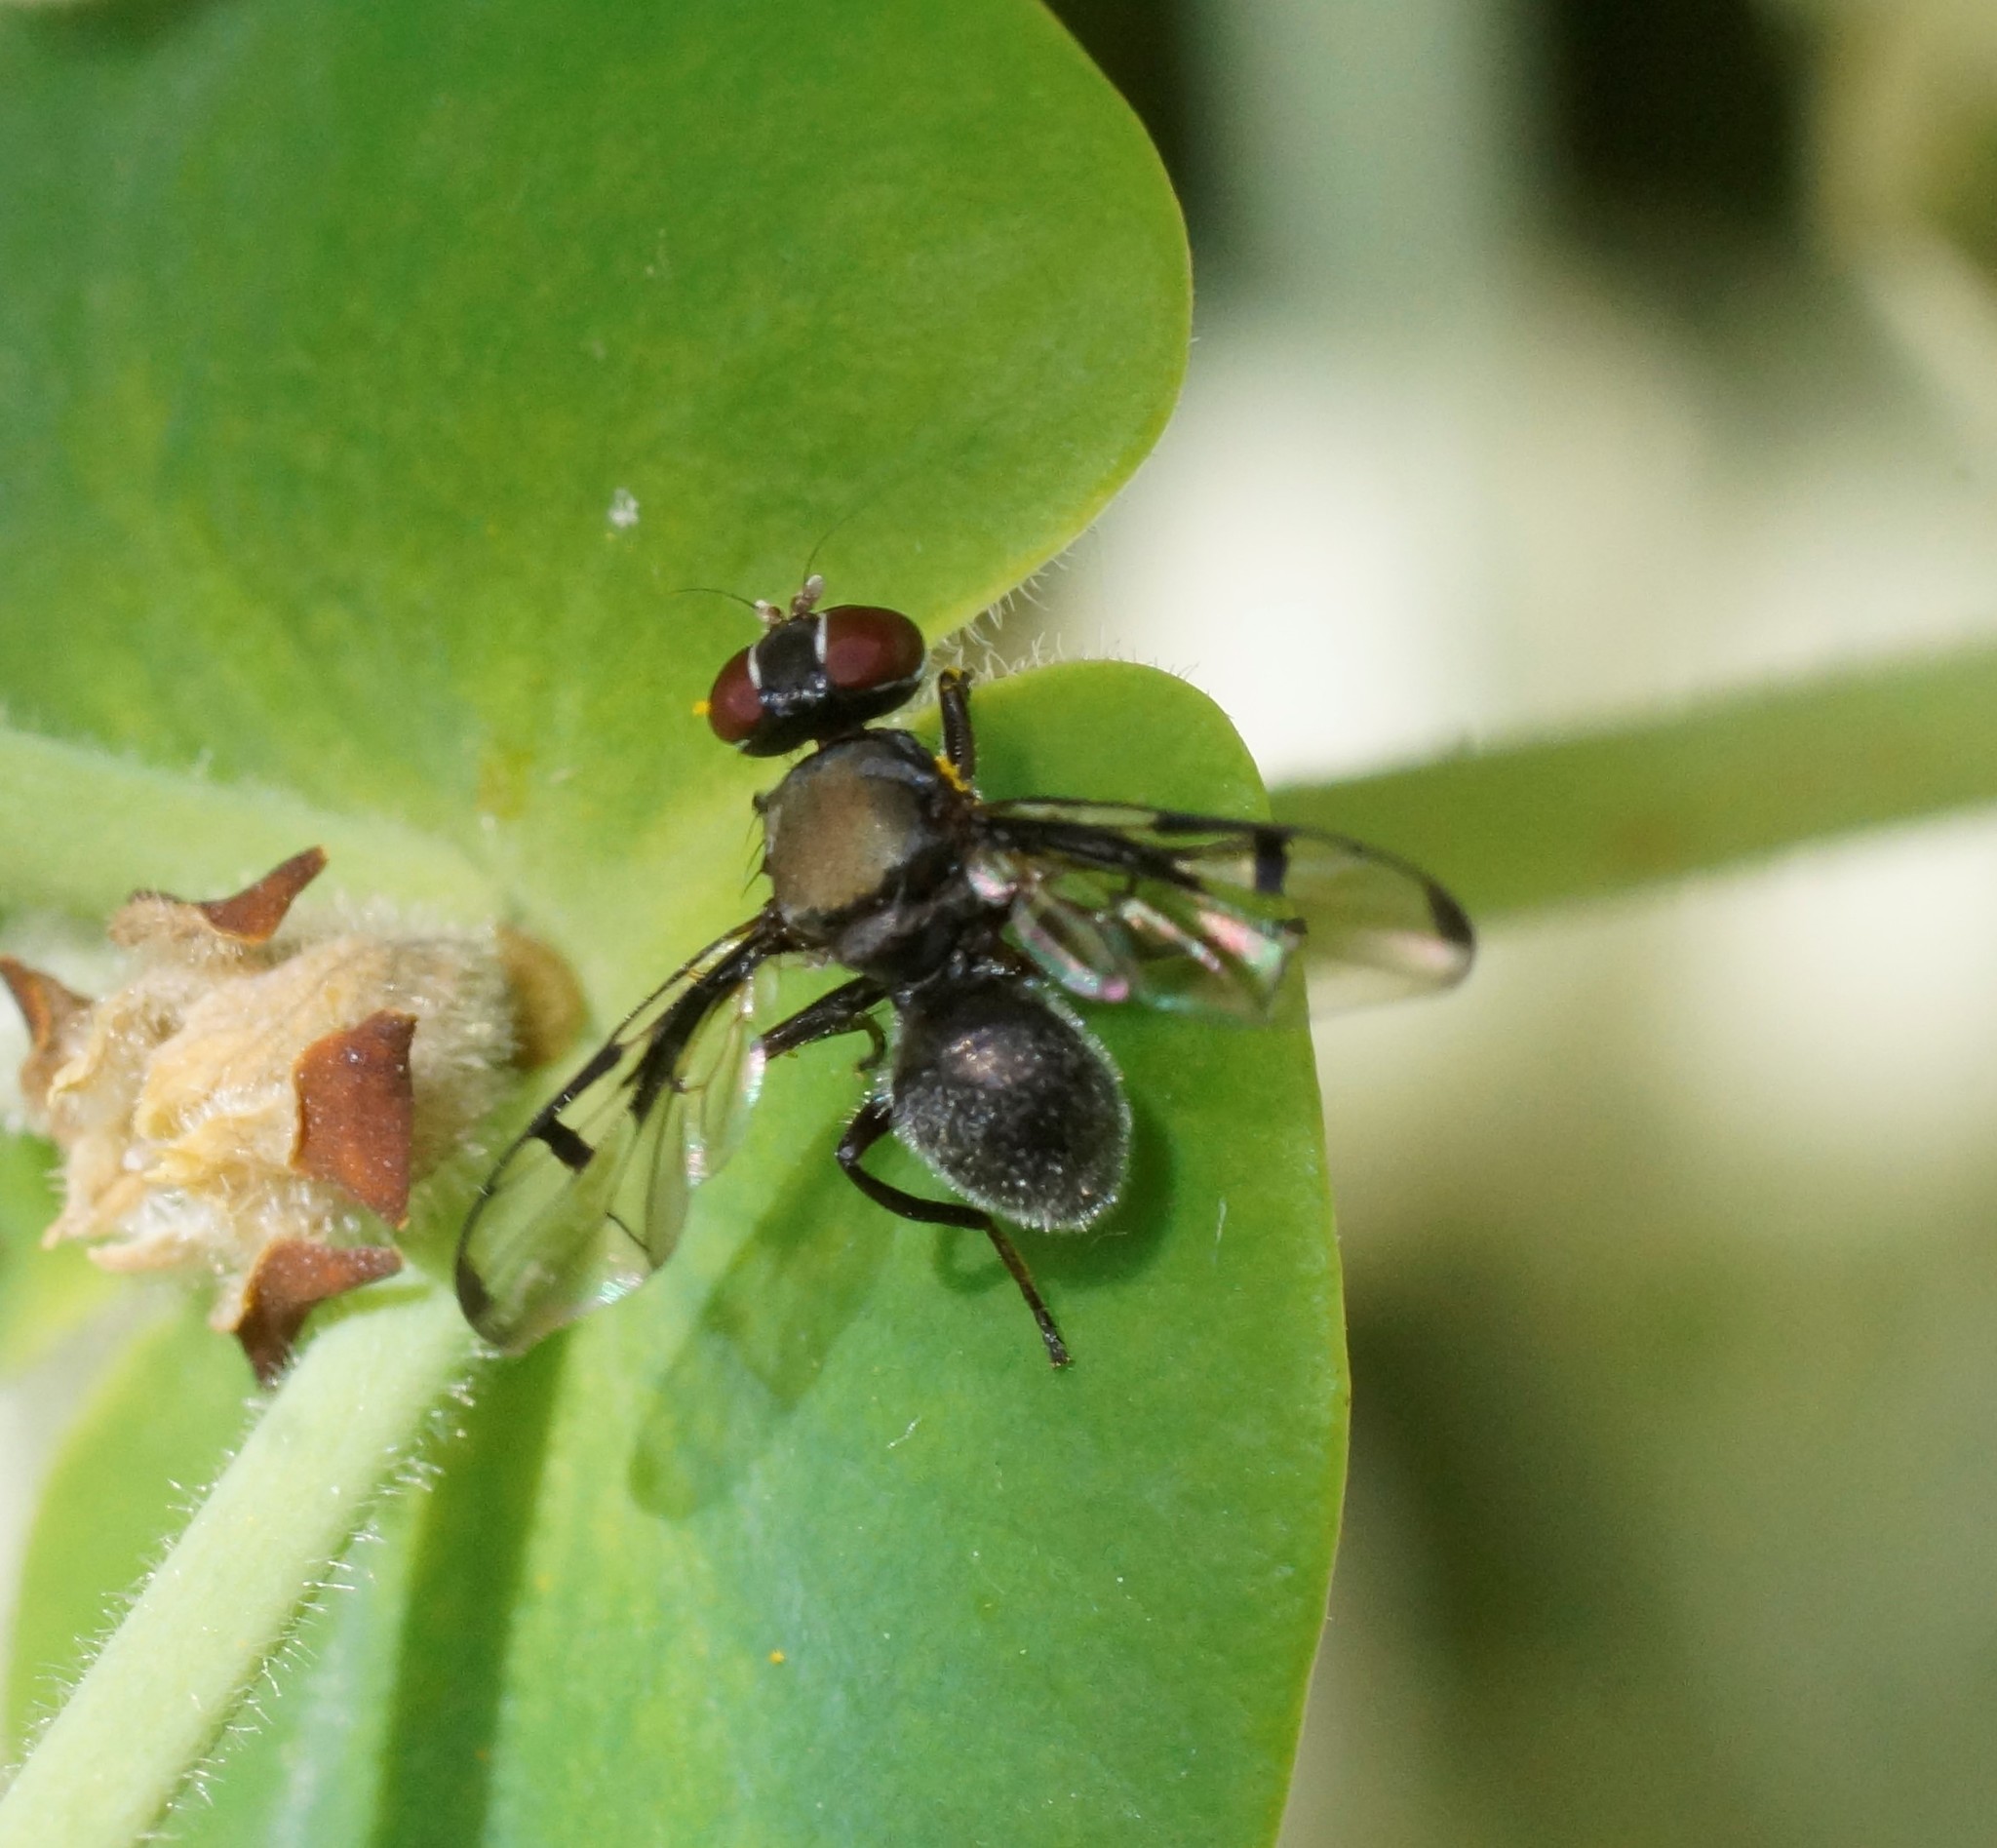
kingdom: Animalia
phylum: Arthropoda
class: Insecta
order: Diptera
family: Platystomatidae
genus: Pogonortalis
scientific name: Pogonortalis doclea
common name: Boatman fly
